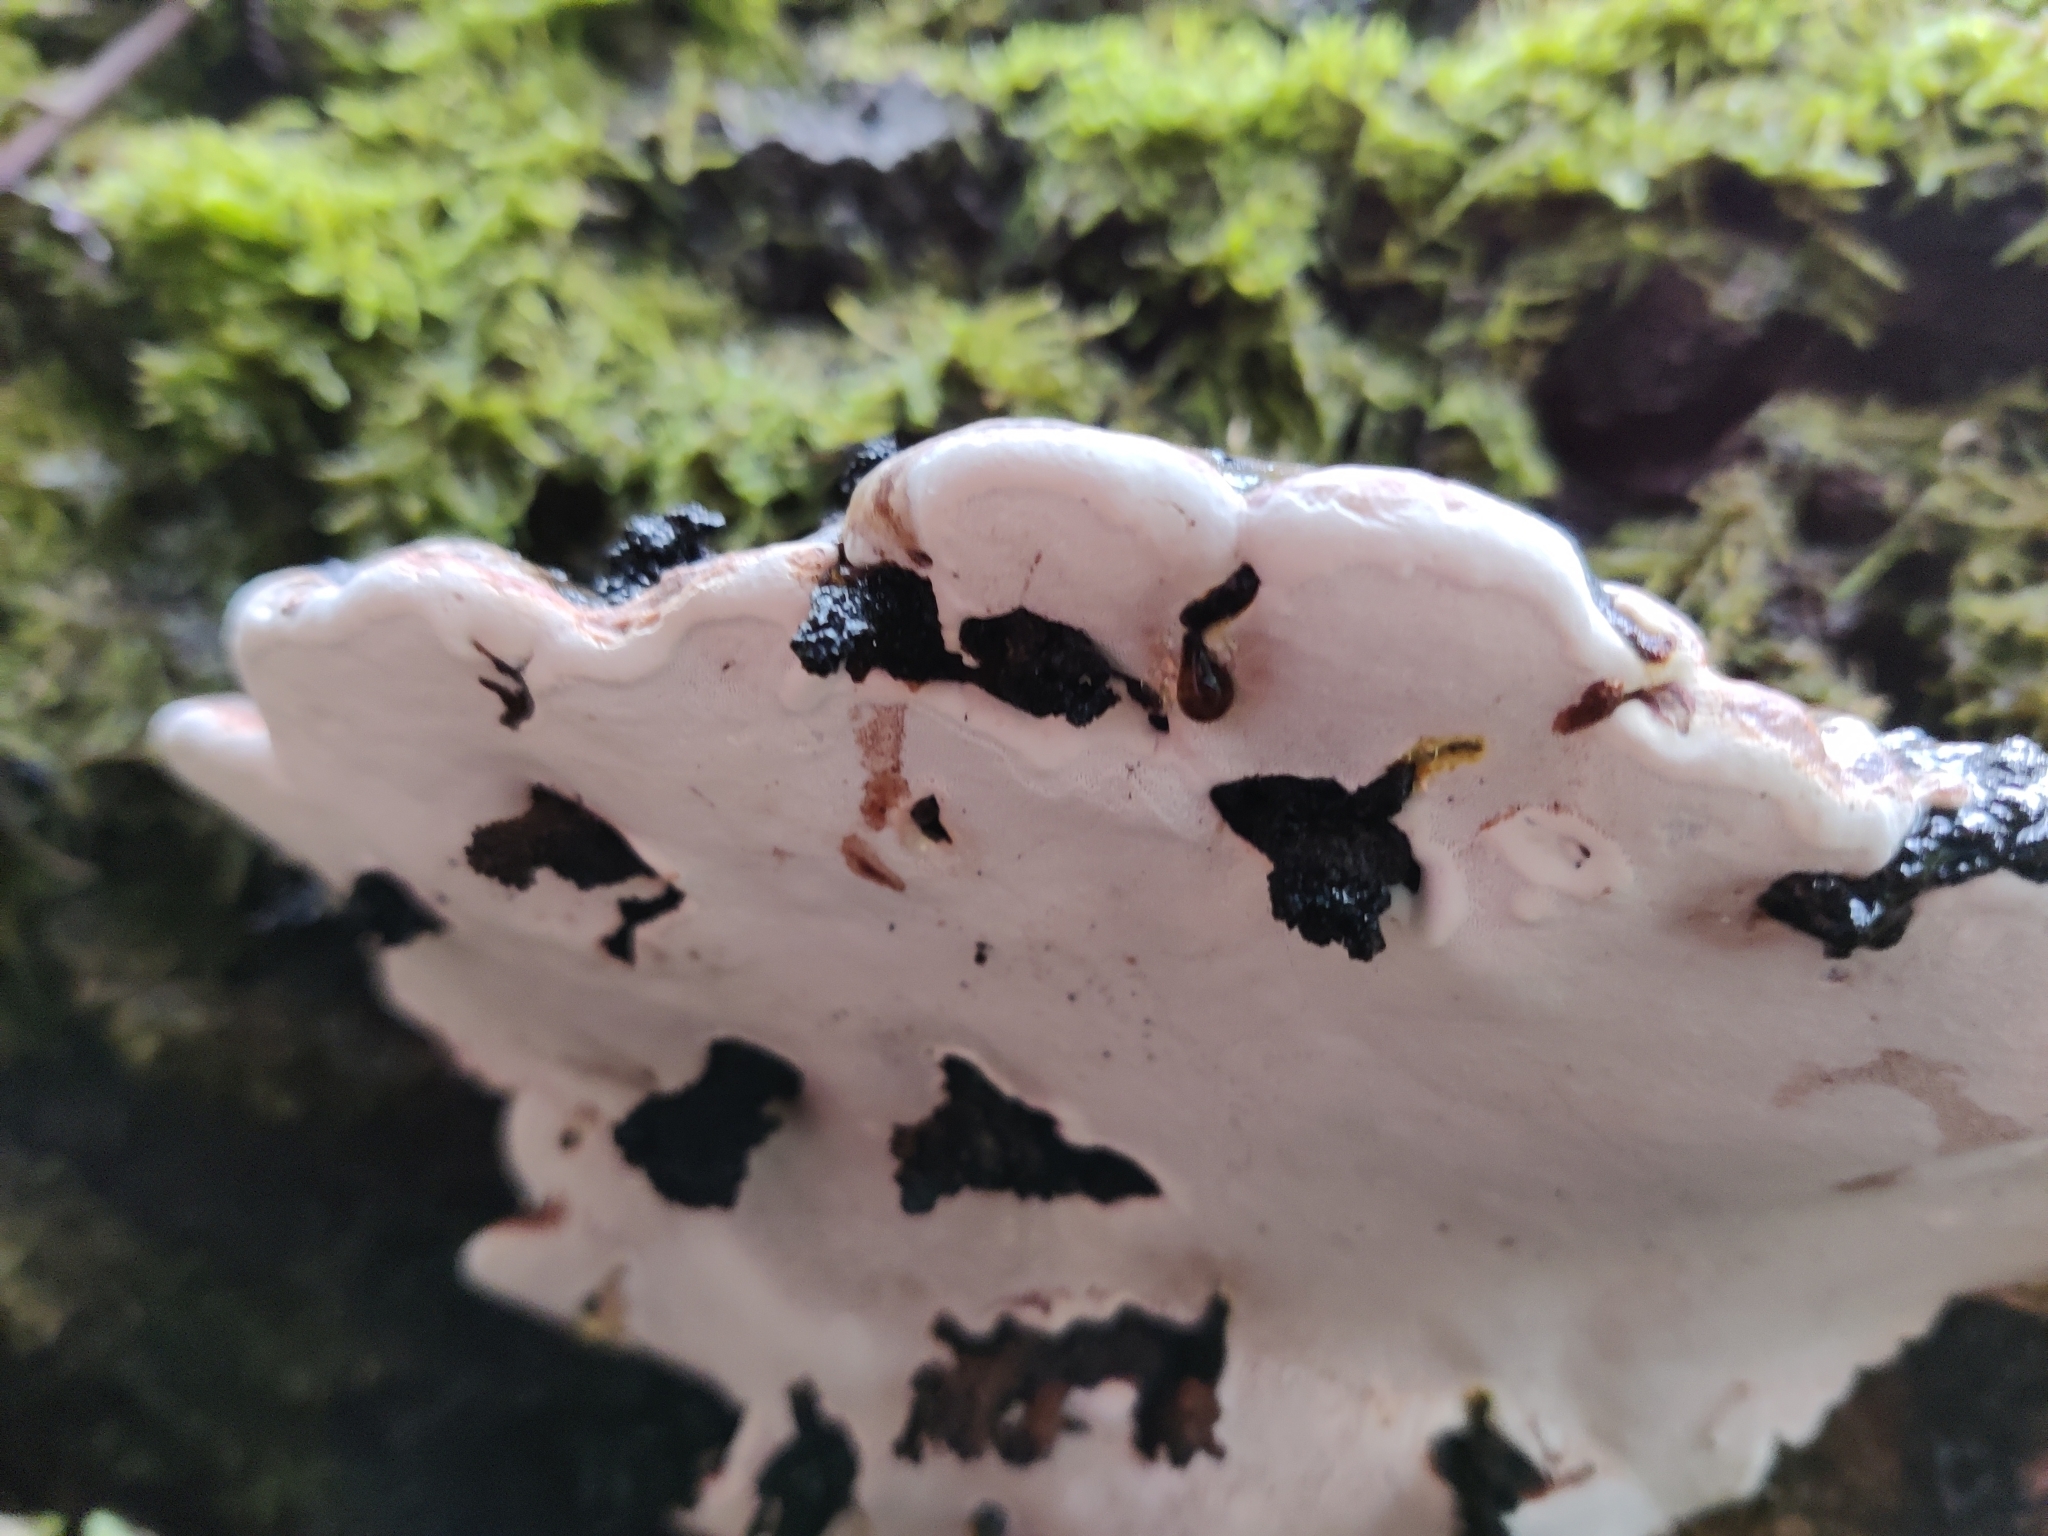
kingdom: Fungi
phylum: Basidiomycota
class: Agaricomycetes
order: Polyporales
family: Polyporaceae
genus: Ganoderma
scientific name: Ganoderma applanatum
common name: Artist's bracket
